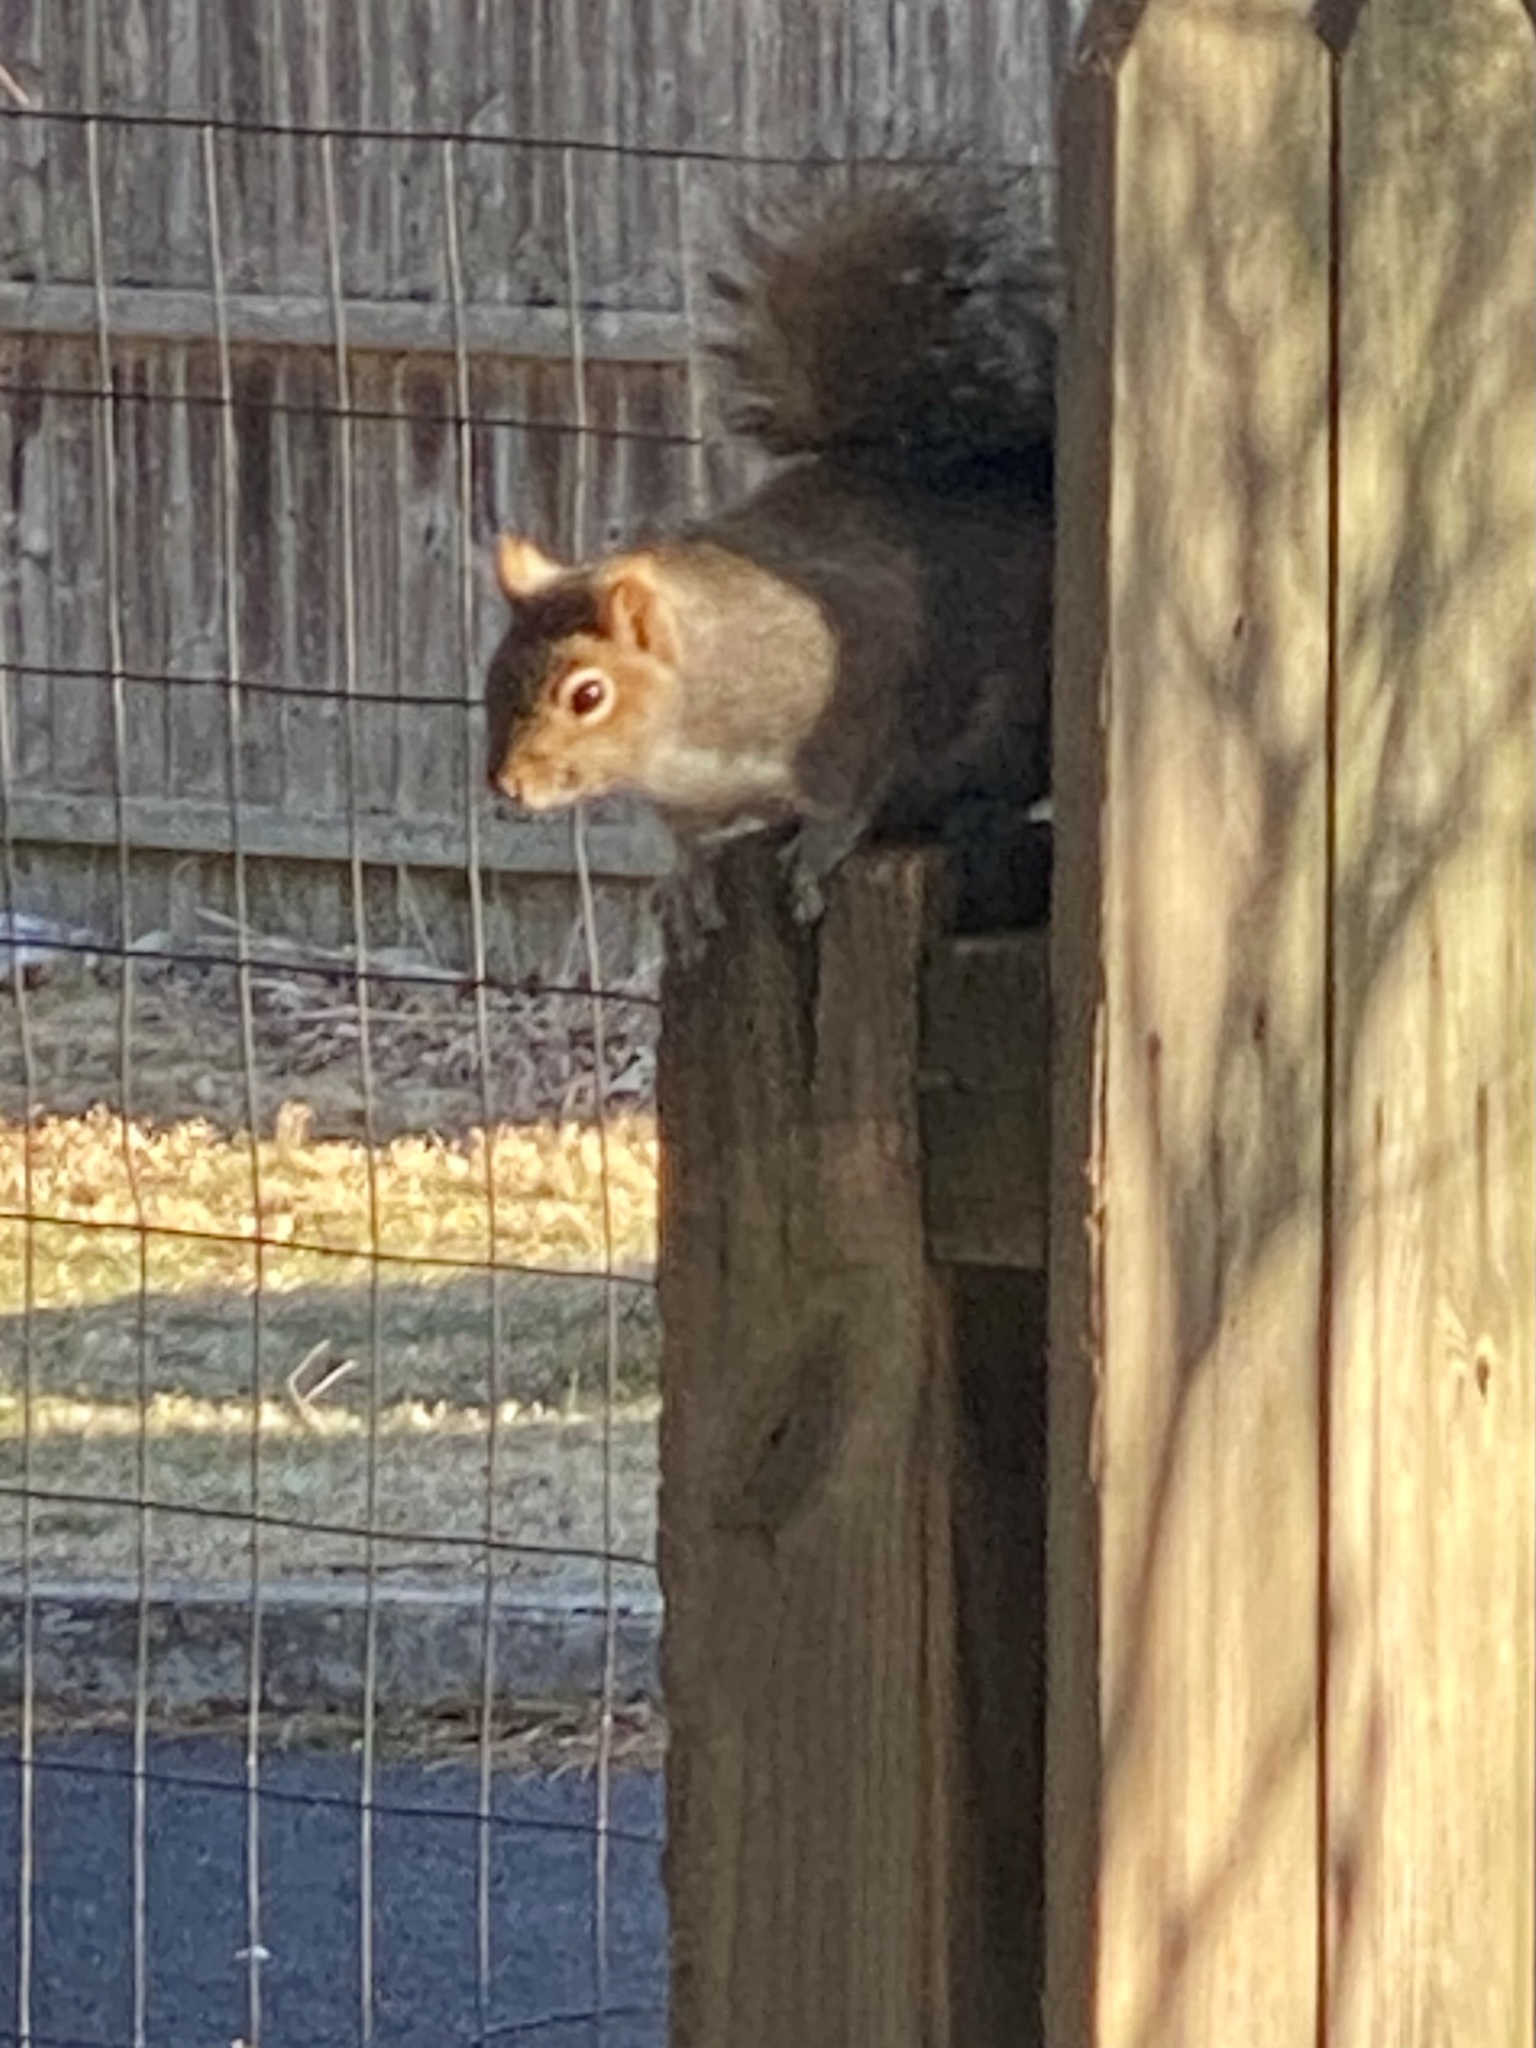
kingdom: Animalia
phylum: Chordata
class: Mammalia
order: Rodentia
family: Sciuridae
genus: Sciurus
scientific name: Sciurus carolinensis
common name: Eastern gray squirrel
